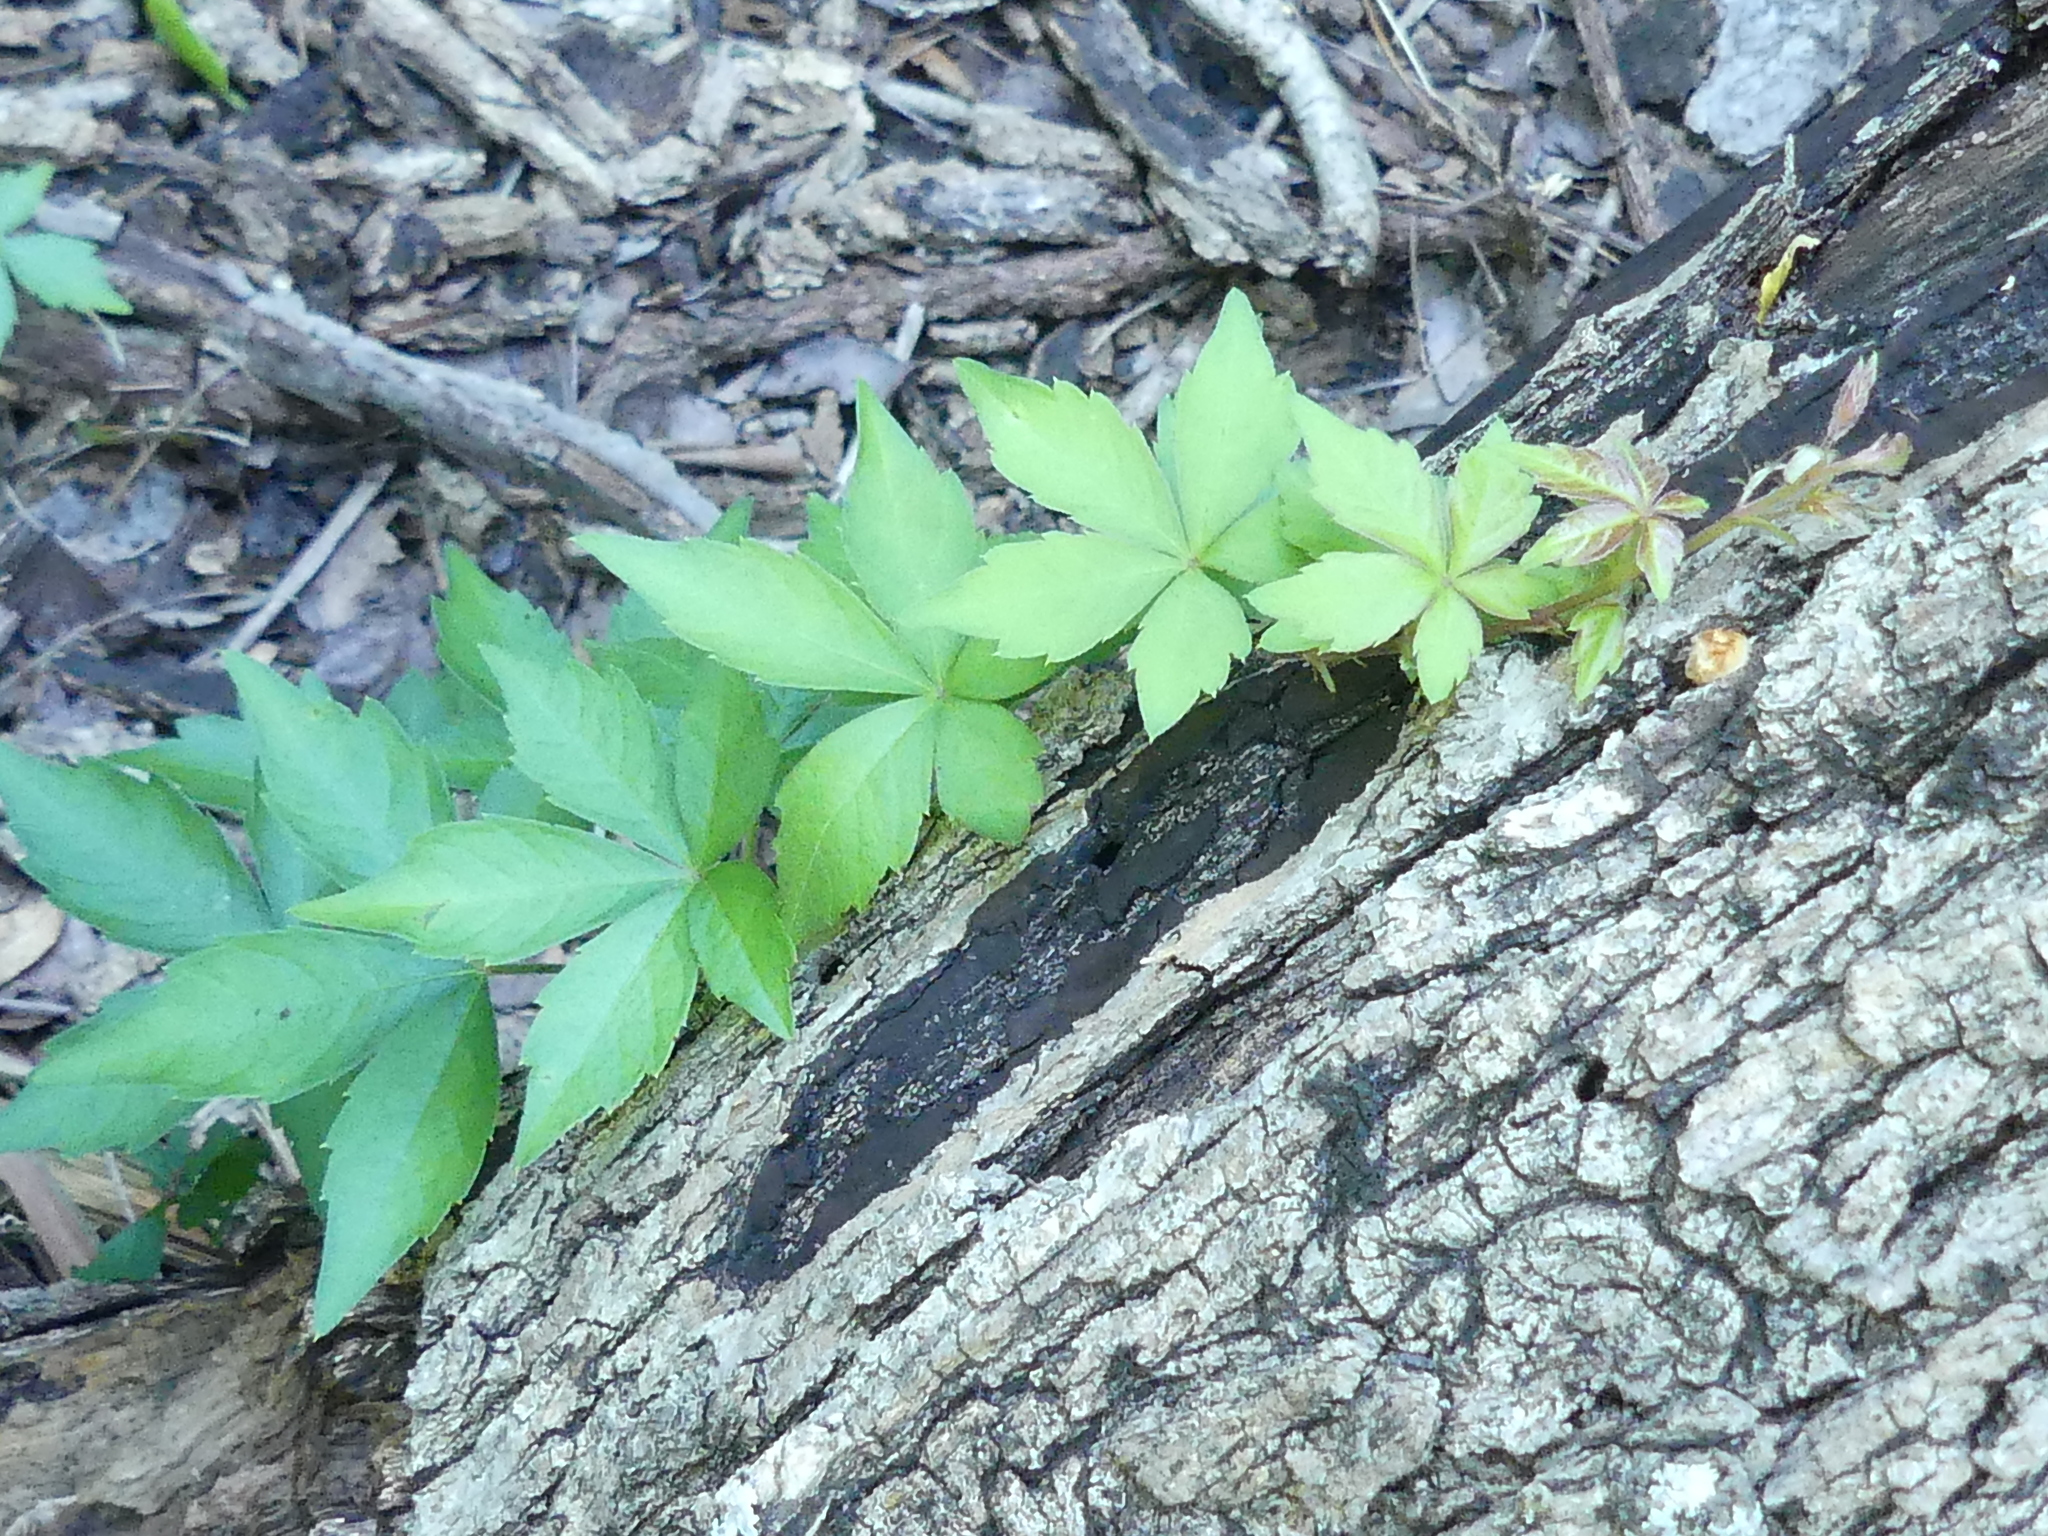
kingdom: Plantae
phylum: Tracheophyta
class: Magnoliopsida
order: Vitales
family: Vitaceae
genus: Parthenocissus
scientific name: Parthenocissus quinquefolia
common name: Virginia-creeper
